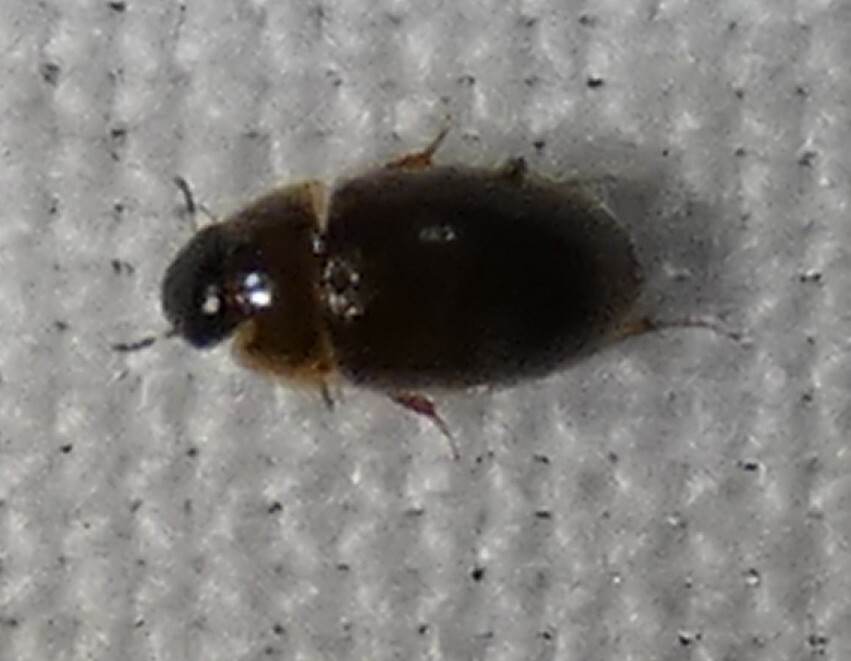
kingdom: Animalia
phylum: Arthropoda
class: Insecta
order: Coleoptera
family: Hydrophilidae
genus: Enochrus
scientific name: Enochrus
